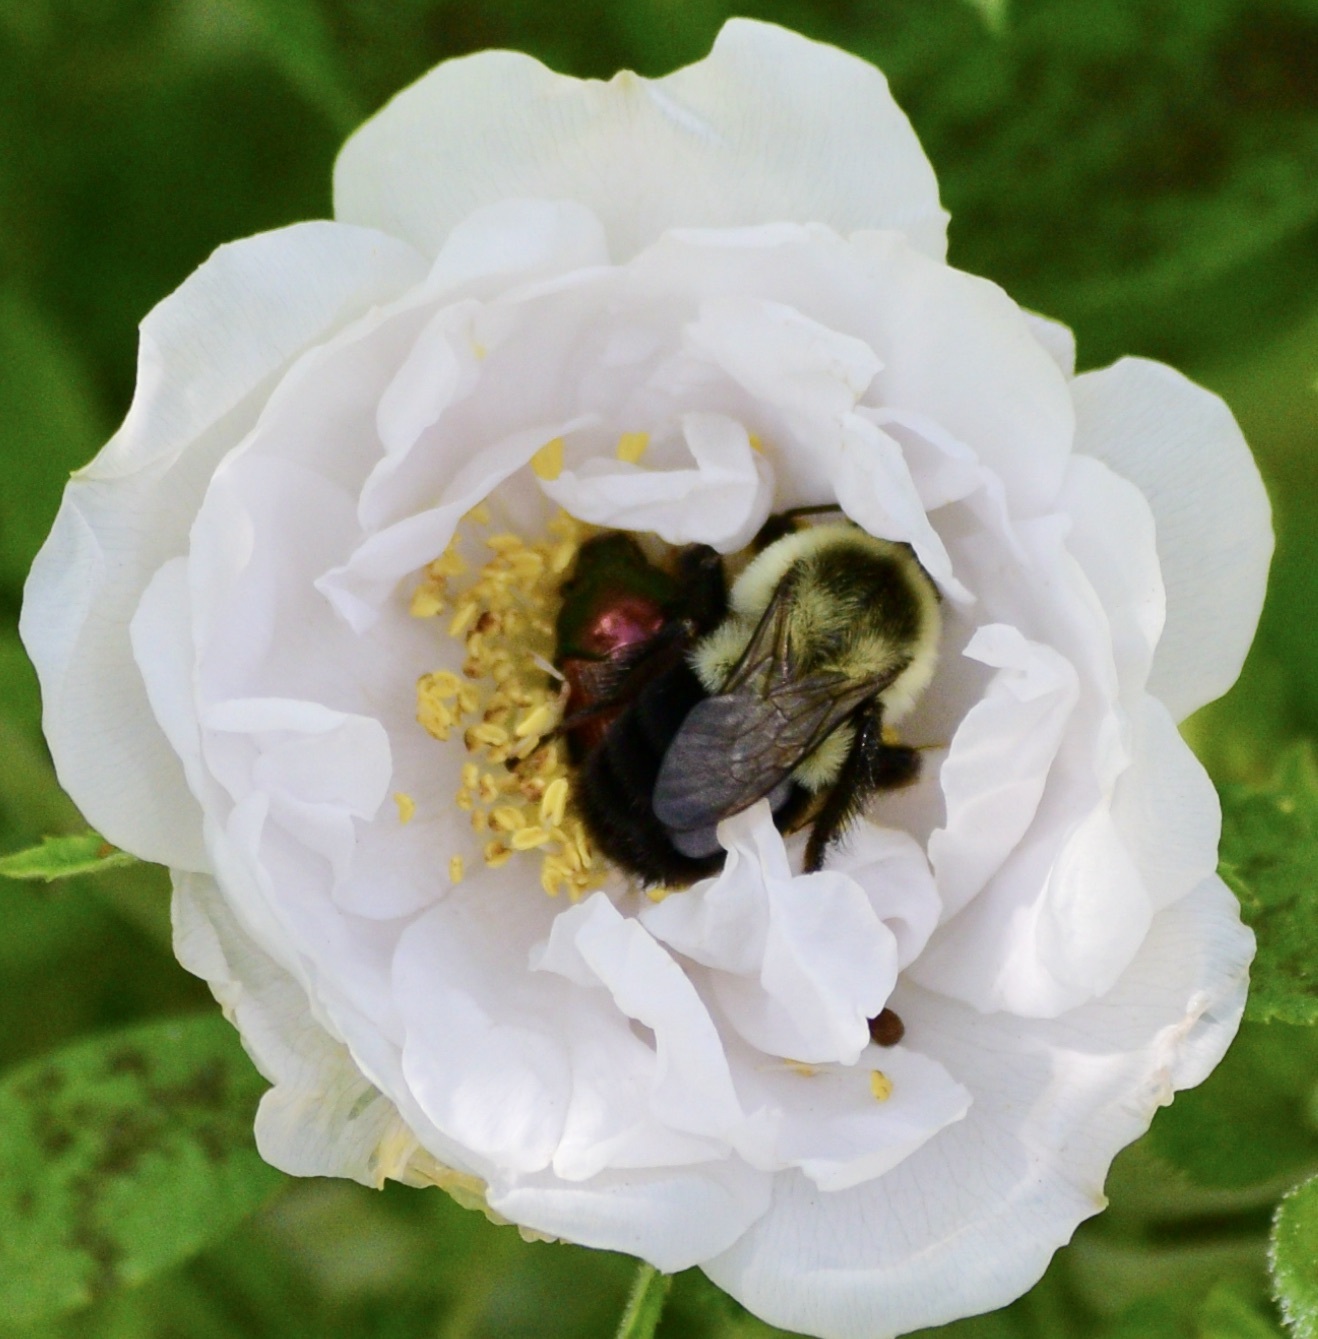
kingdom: Animalia
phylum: Arthropoda
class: Insecta
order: Hymenoptera
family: Apidae
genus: Bombus
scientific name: Bombus impatiens
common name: Common eastern bumble bee
